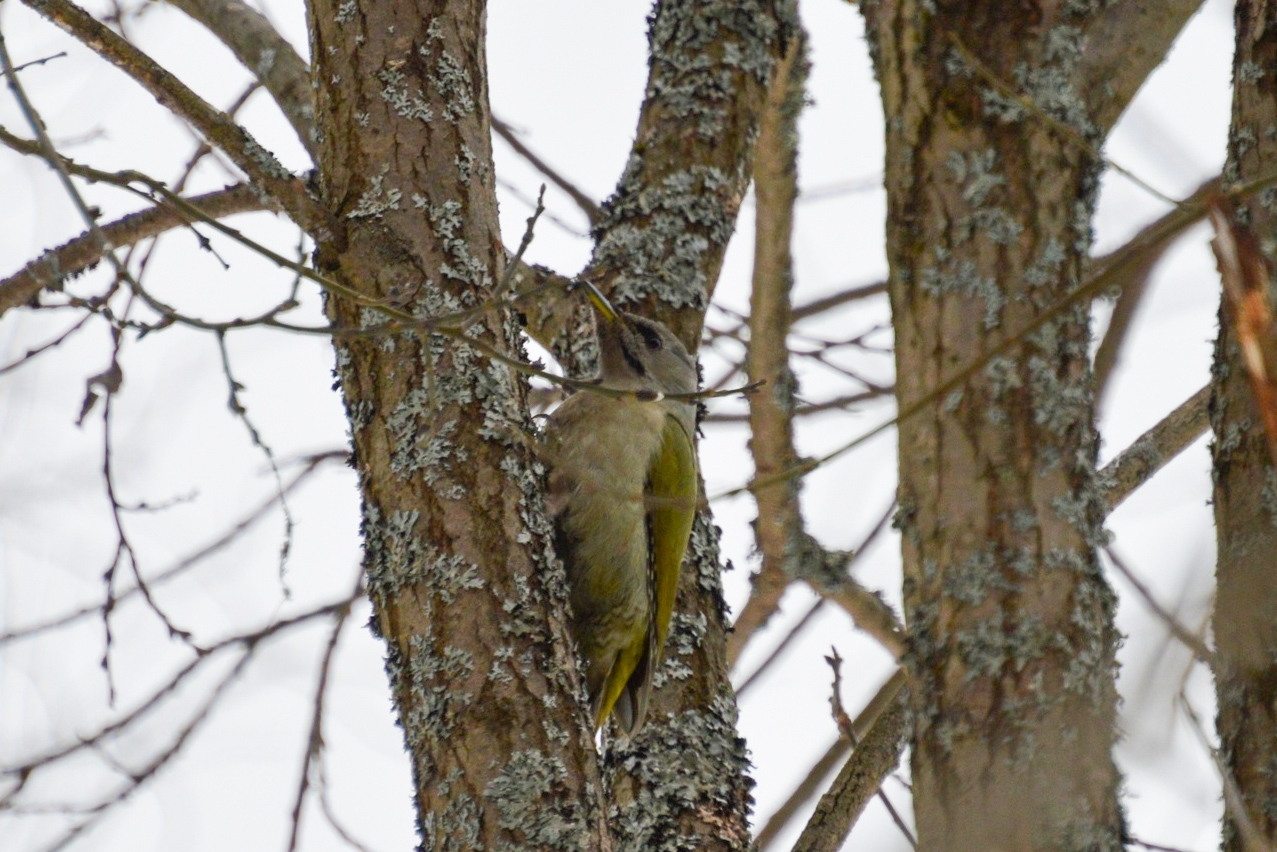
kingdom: Animalia
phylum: Chordata
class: Aves
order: Piciformes
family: Picidae
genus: Picus
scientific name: Picus canus
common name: Grey-headed woodpecker
